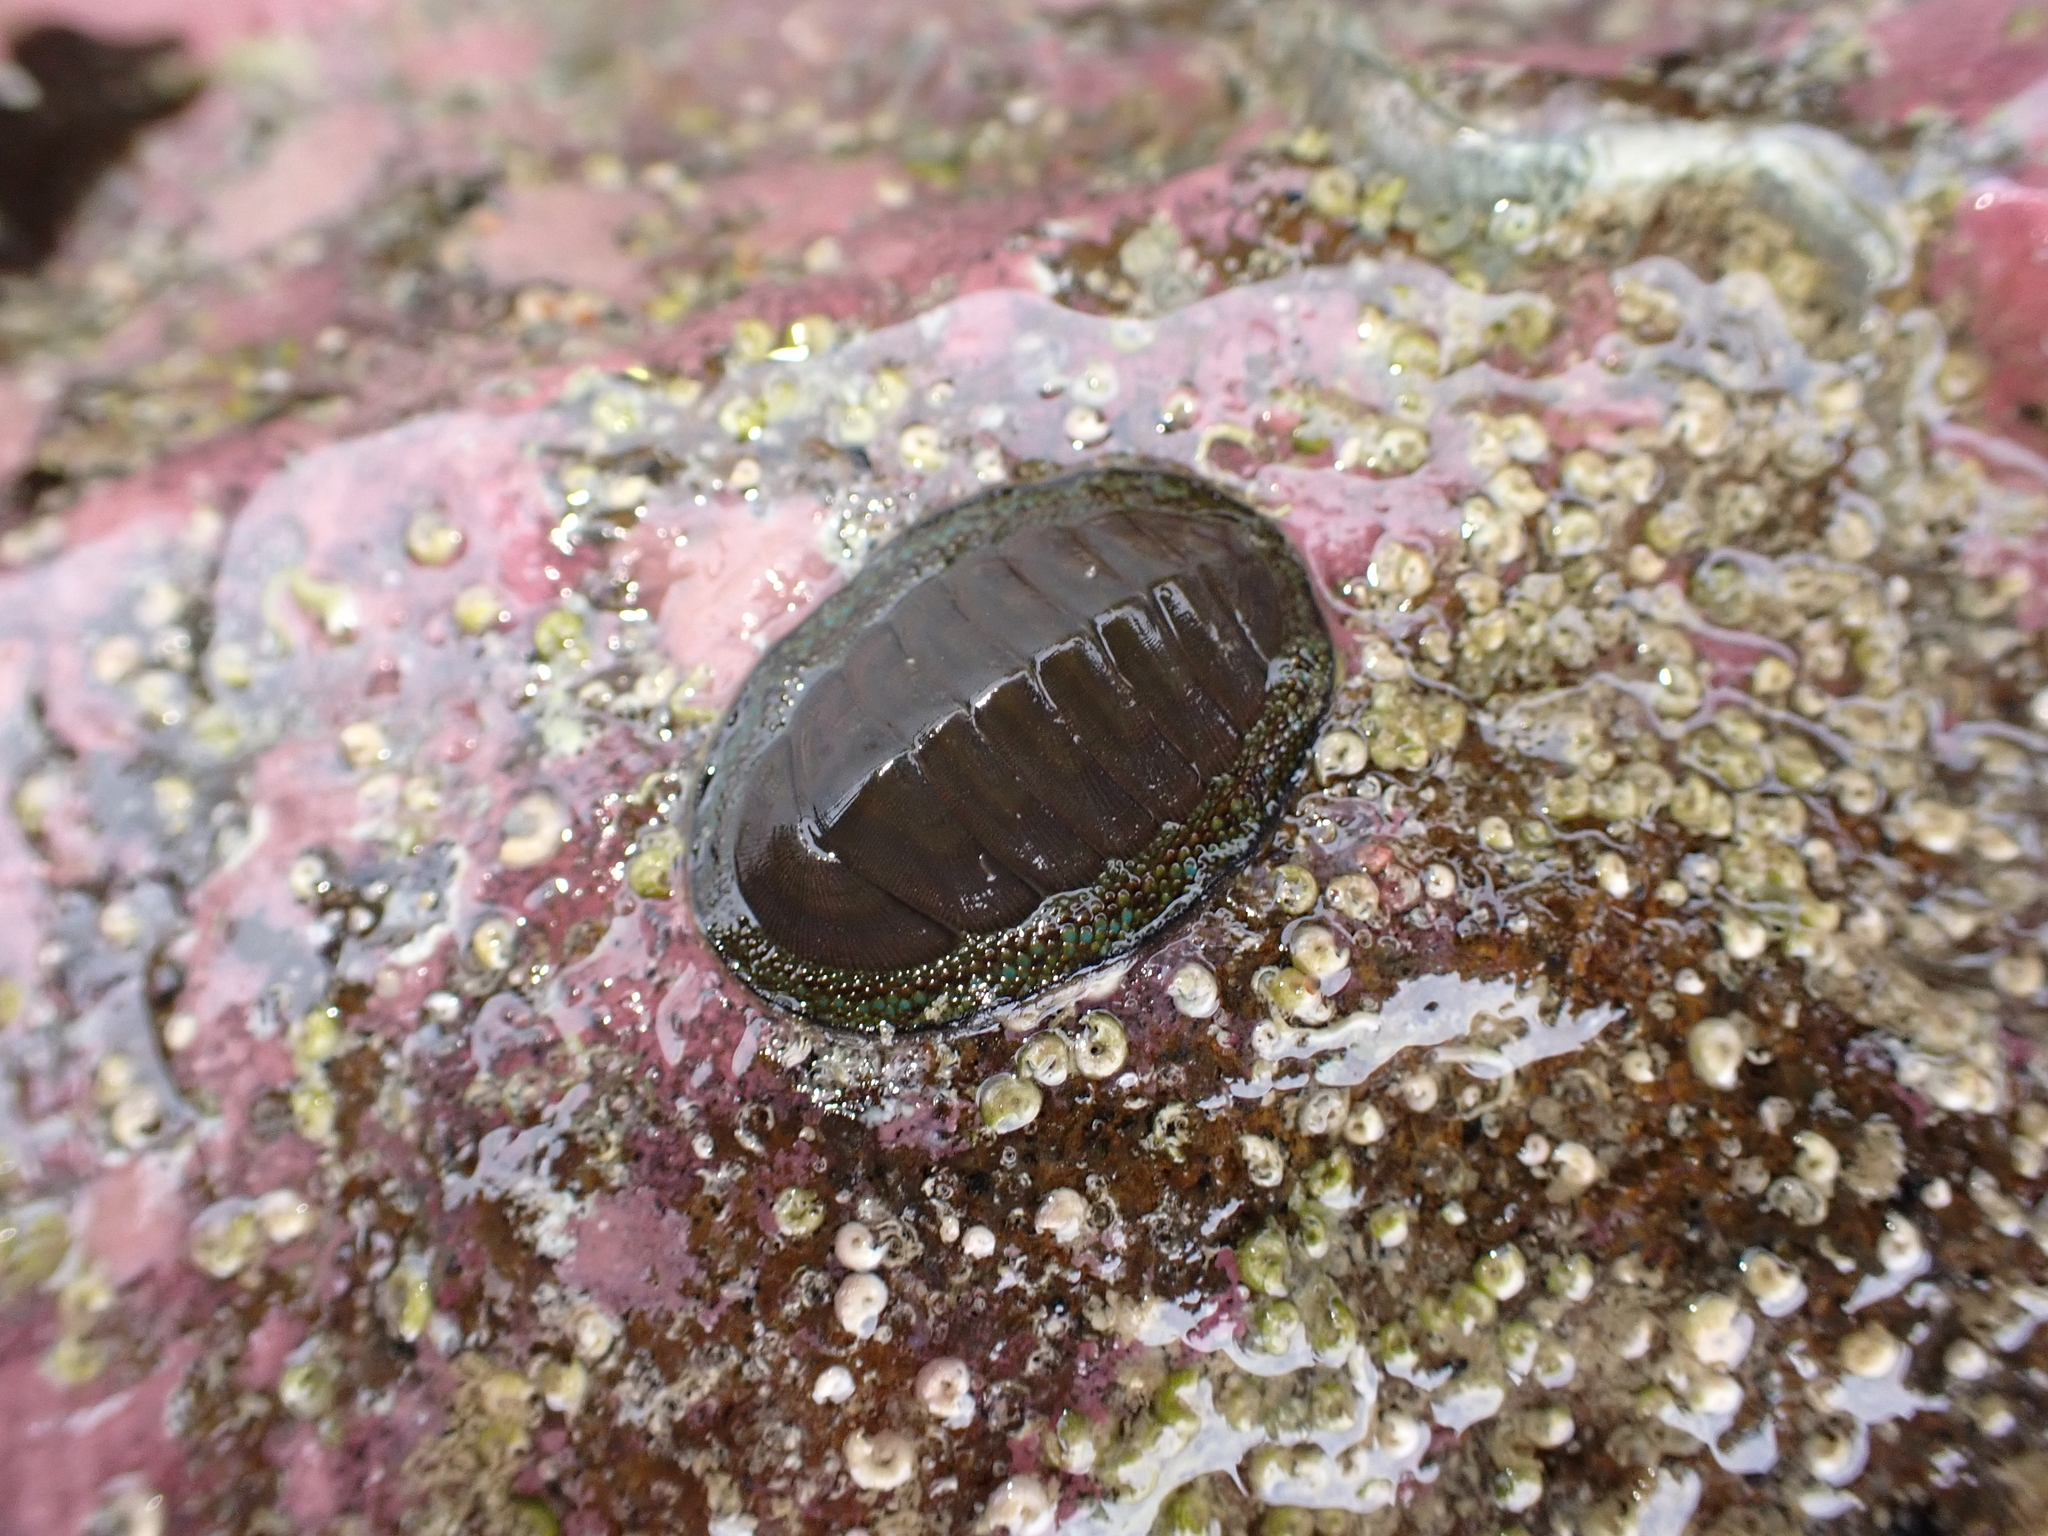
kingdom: Animalia
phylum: Mollusca
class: Polyplacophora
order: Chitonida
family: Chitonidae
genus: Chiton
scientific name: Chiton glaucus
